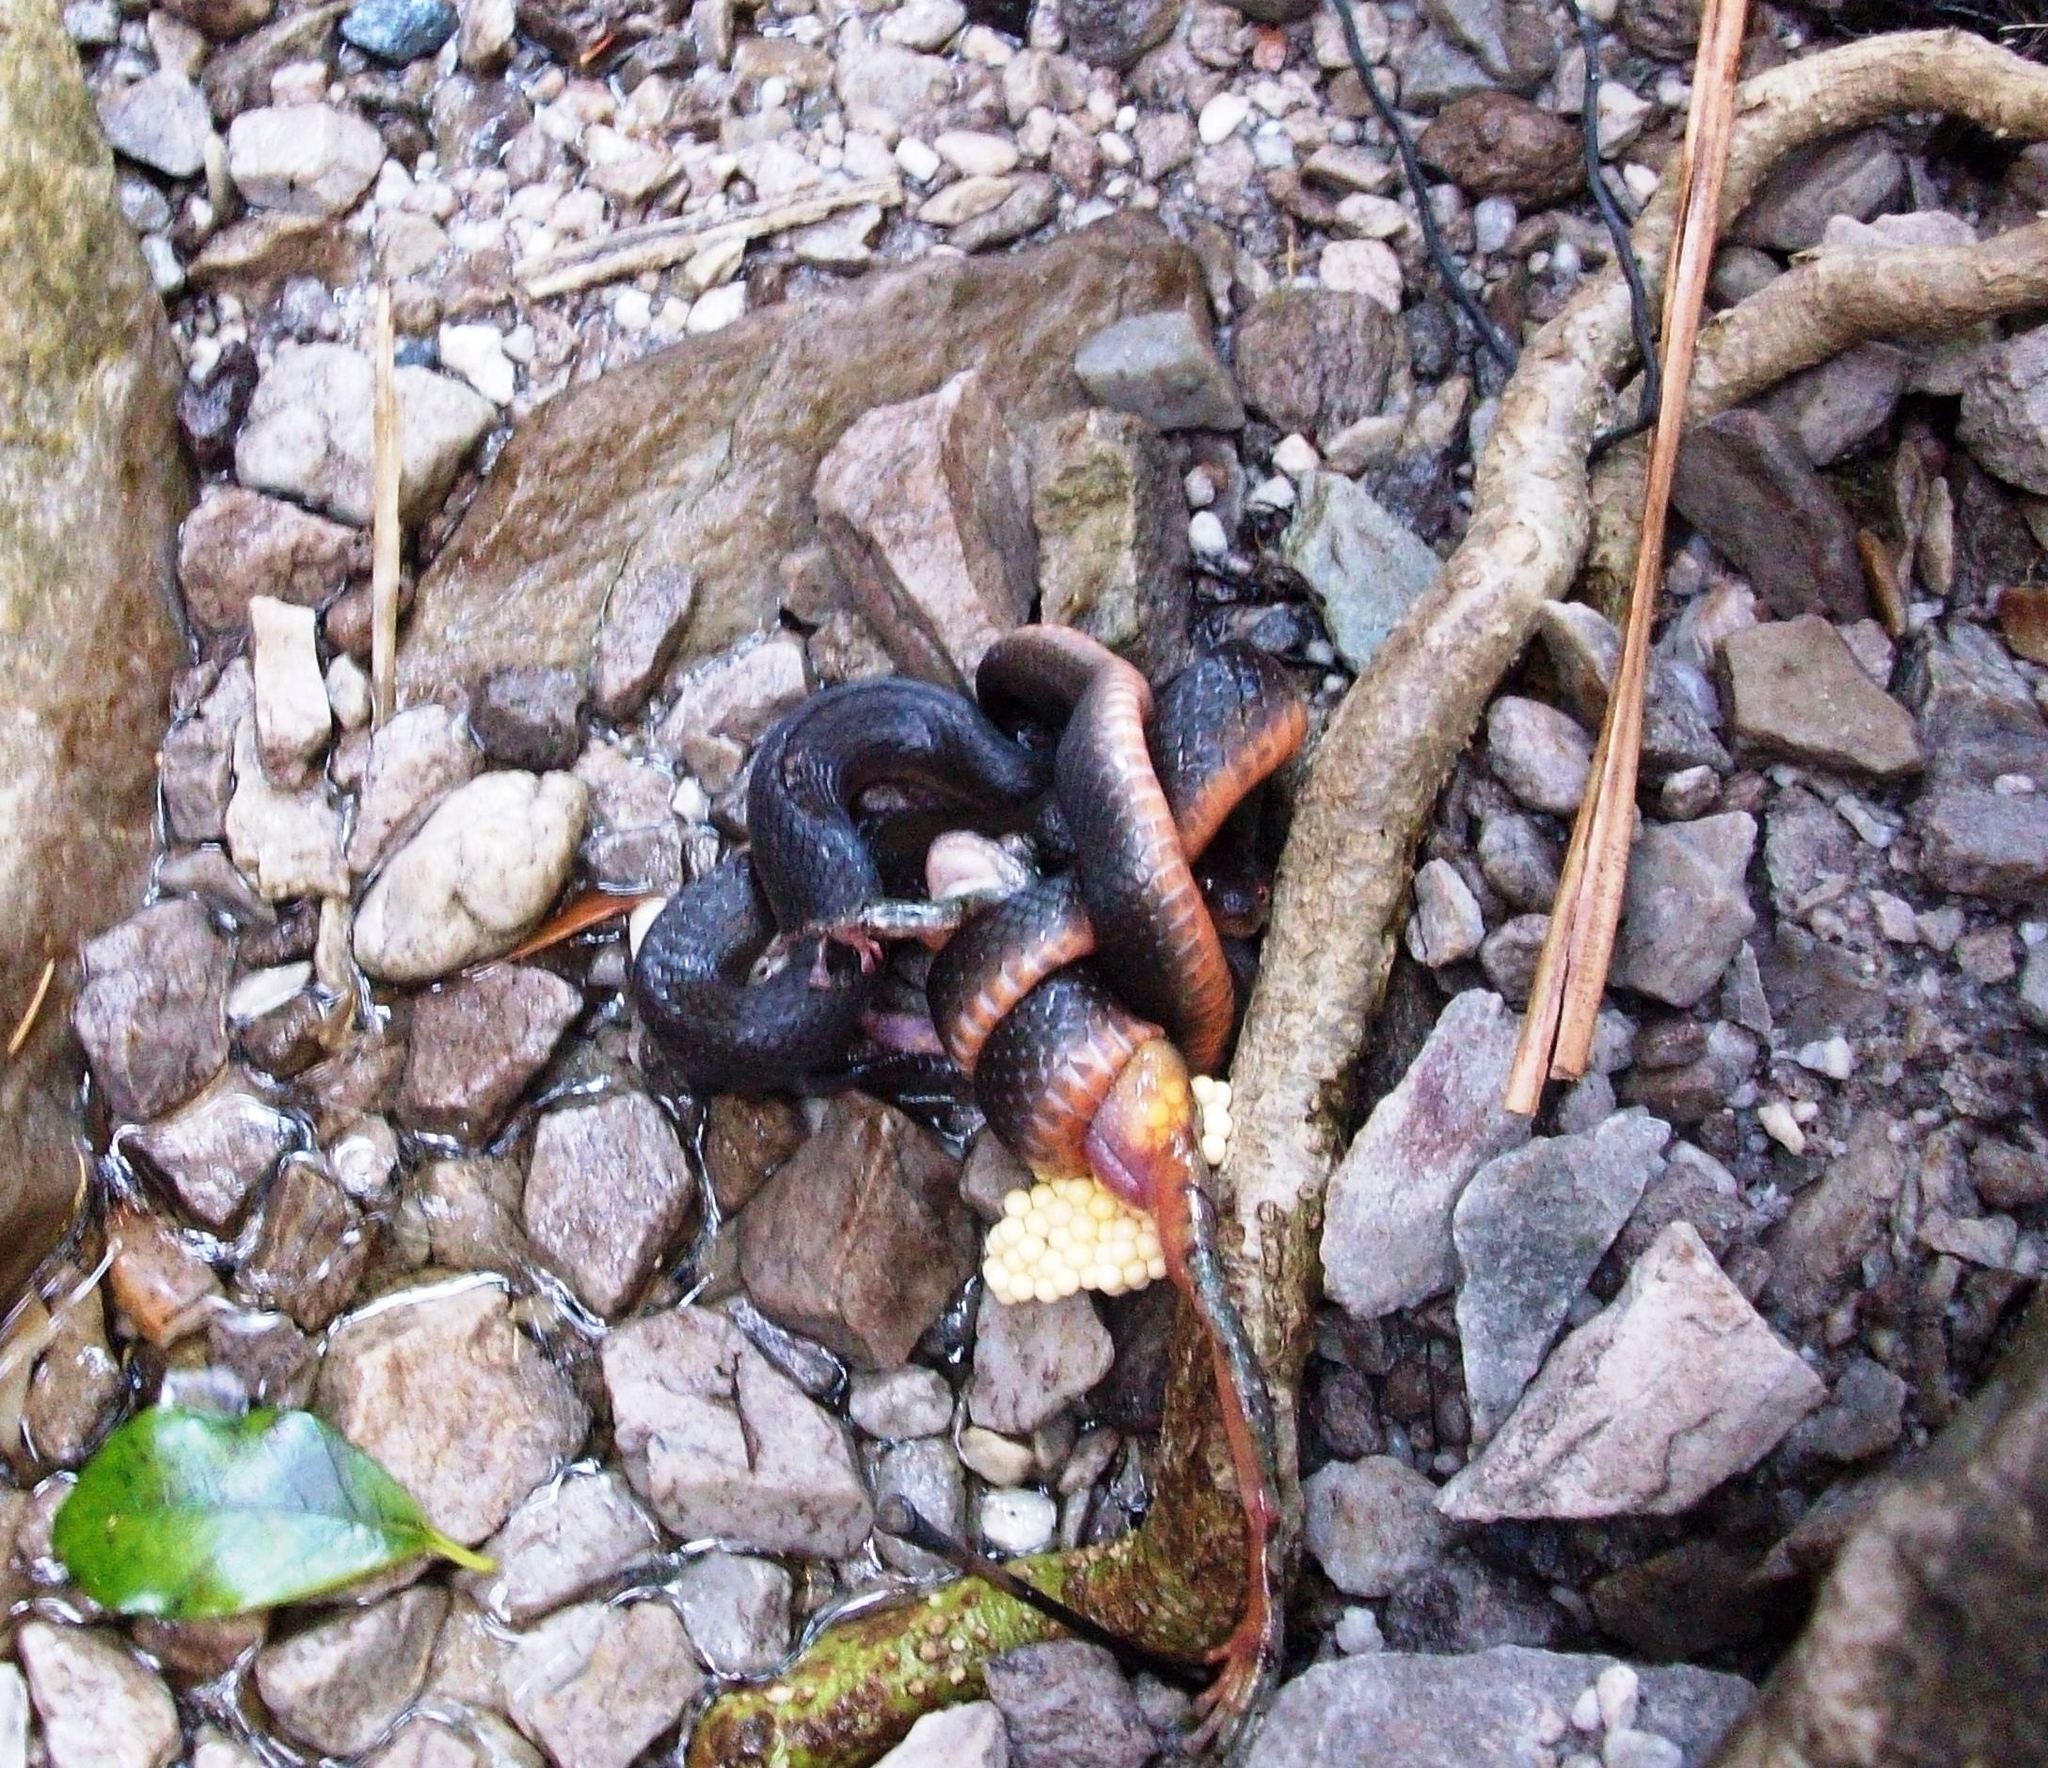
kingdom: Animalia
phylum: Chordata
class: Amphibia
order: Anura
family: Heleophrynidae
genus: Heleophryne
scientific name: Heleophryne purcelli
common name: Purcell's ghost frog
